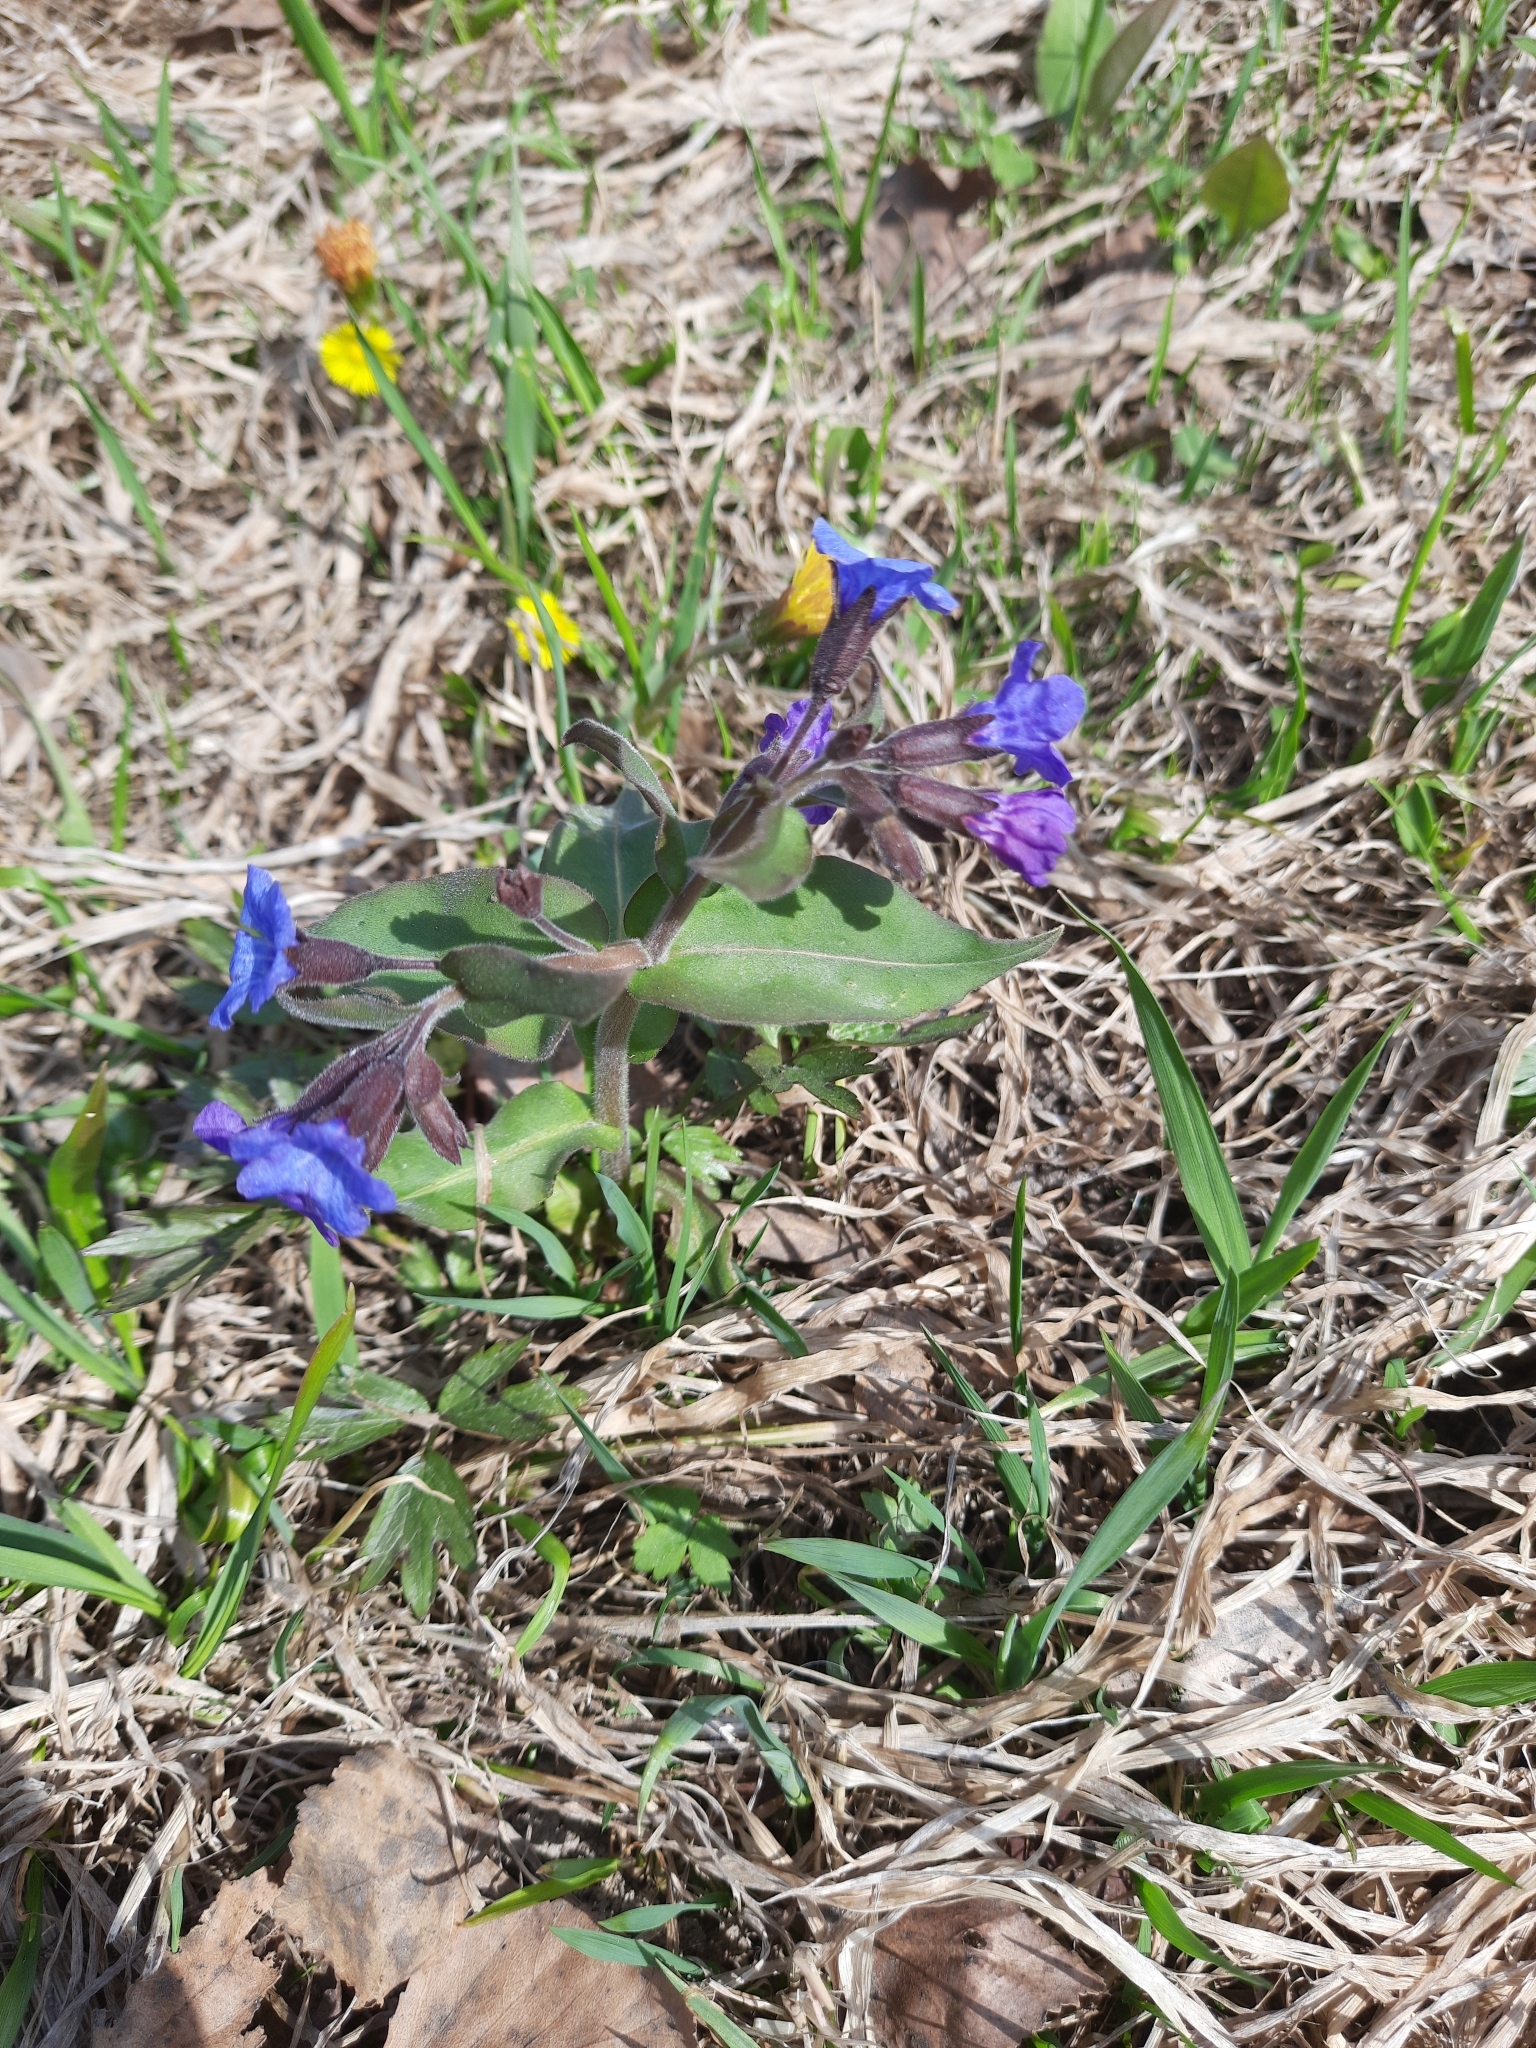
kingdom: Plantae
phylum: Tracheophyta
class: Magnoliopsida
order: Boraginales
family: Boraginaceae
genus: Pulmonaria
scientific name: Pulmonaria mollis
